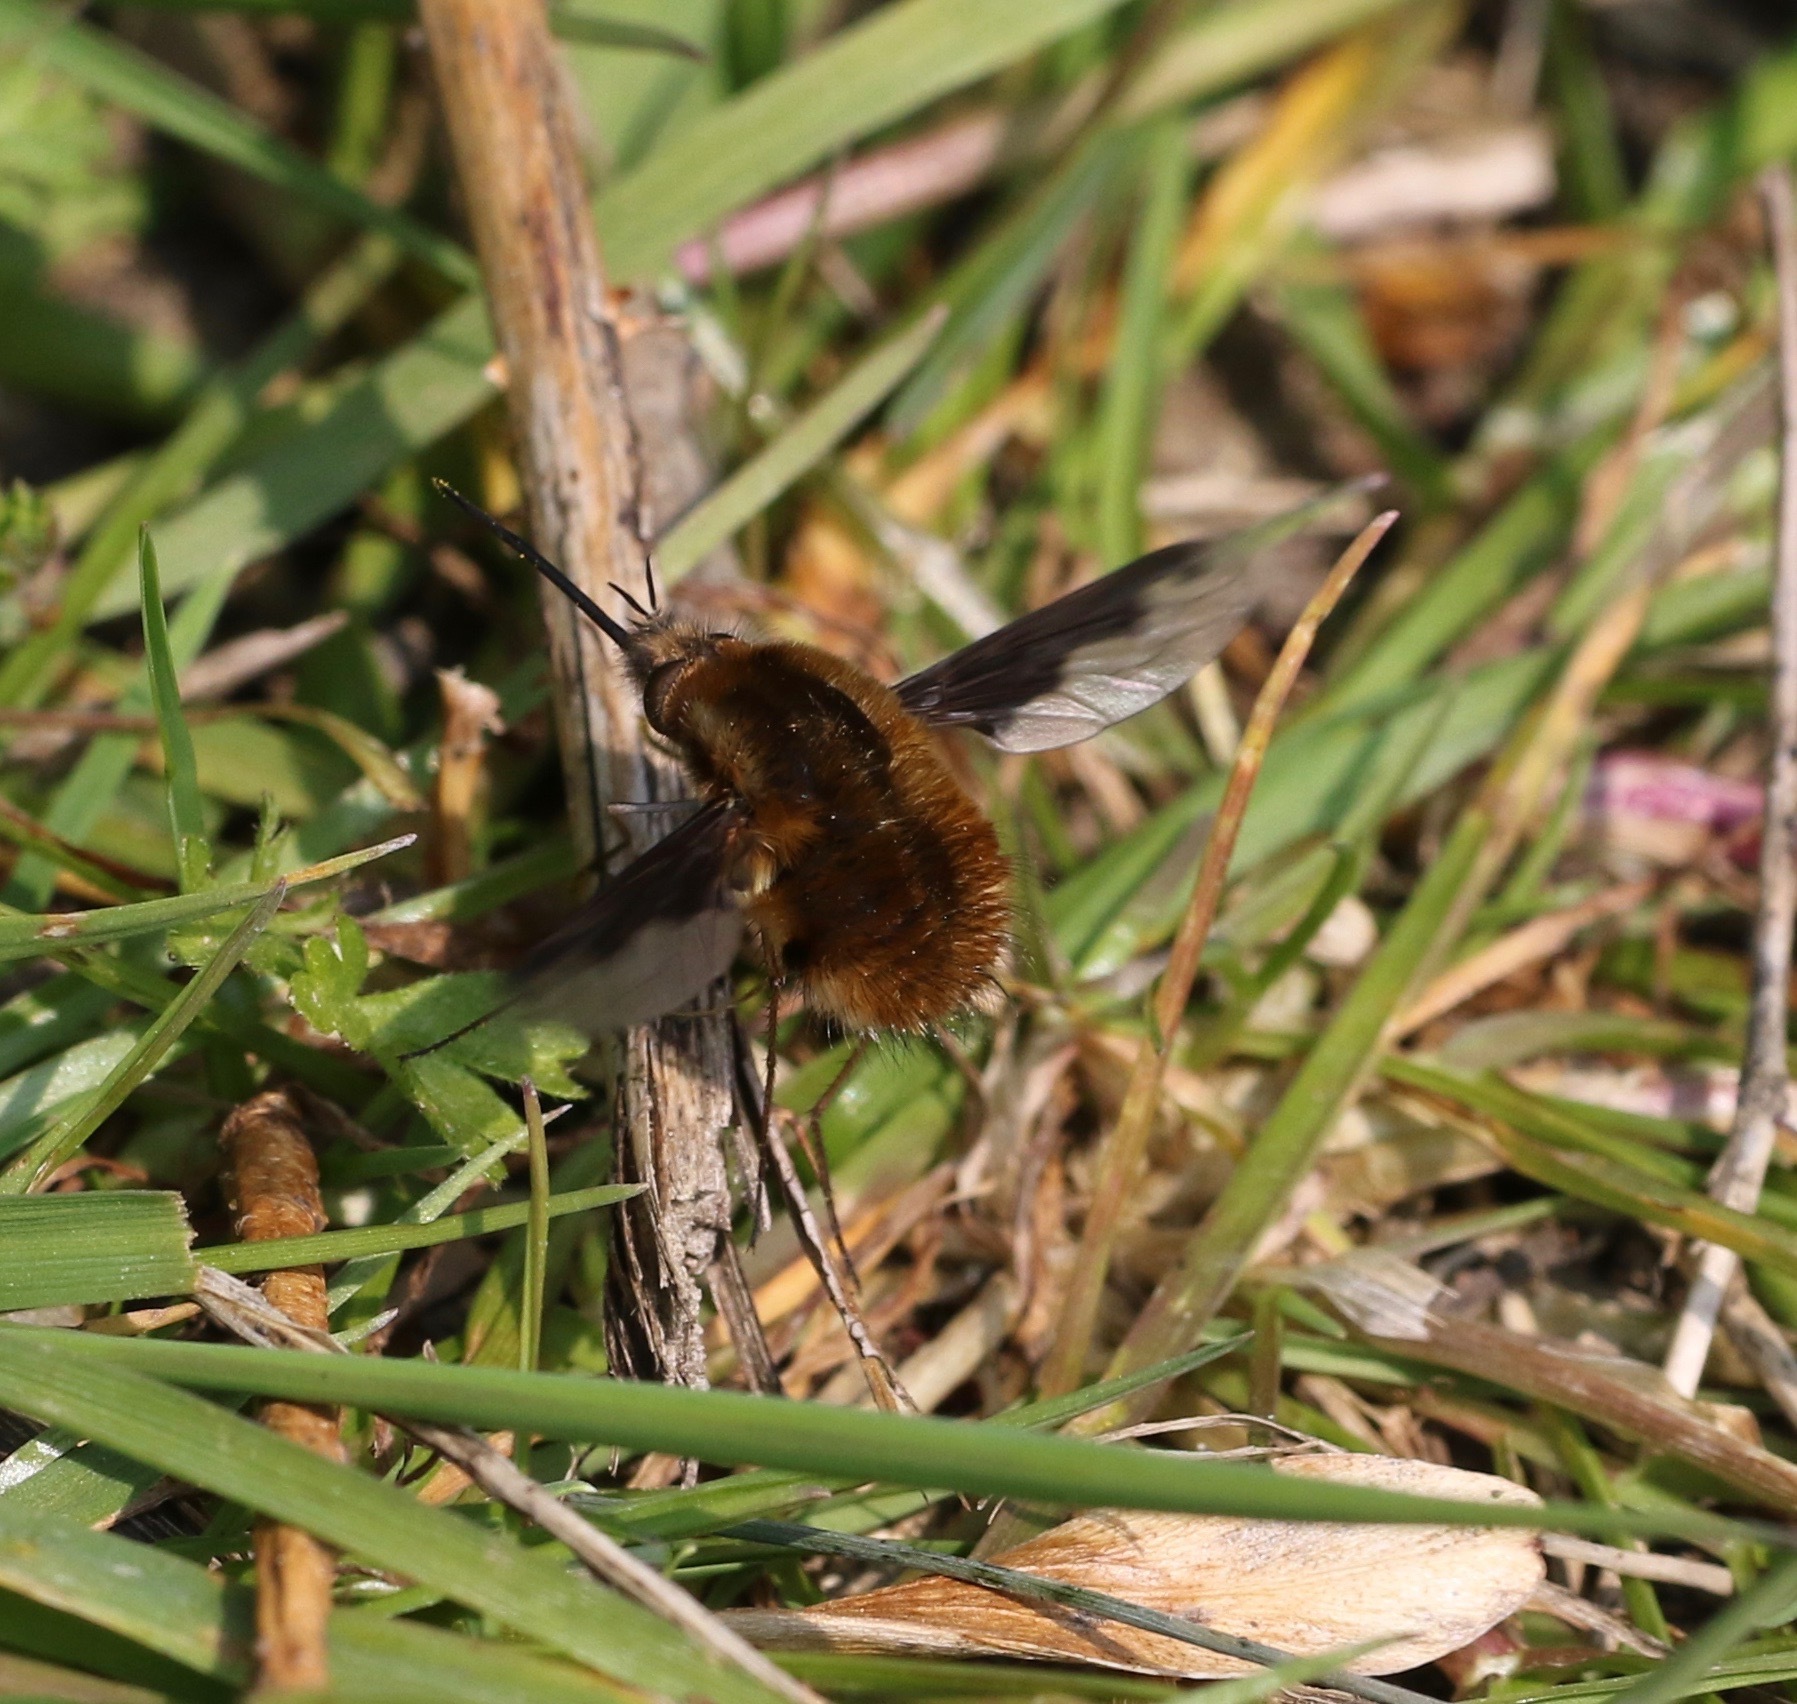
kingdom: Animalia
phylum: Arthropoda
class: Insecta
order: Diptera
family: Bombyliidae
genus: Bombylius
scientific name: Bombylius major
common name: Bee fly
